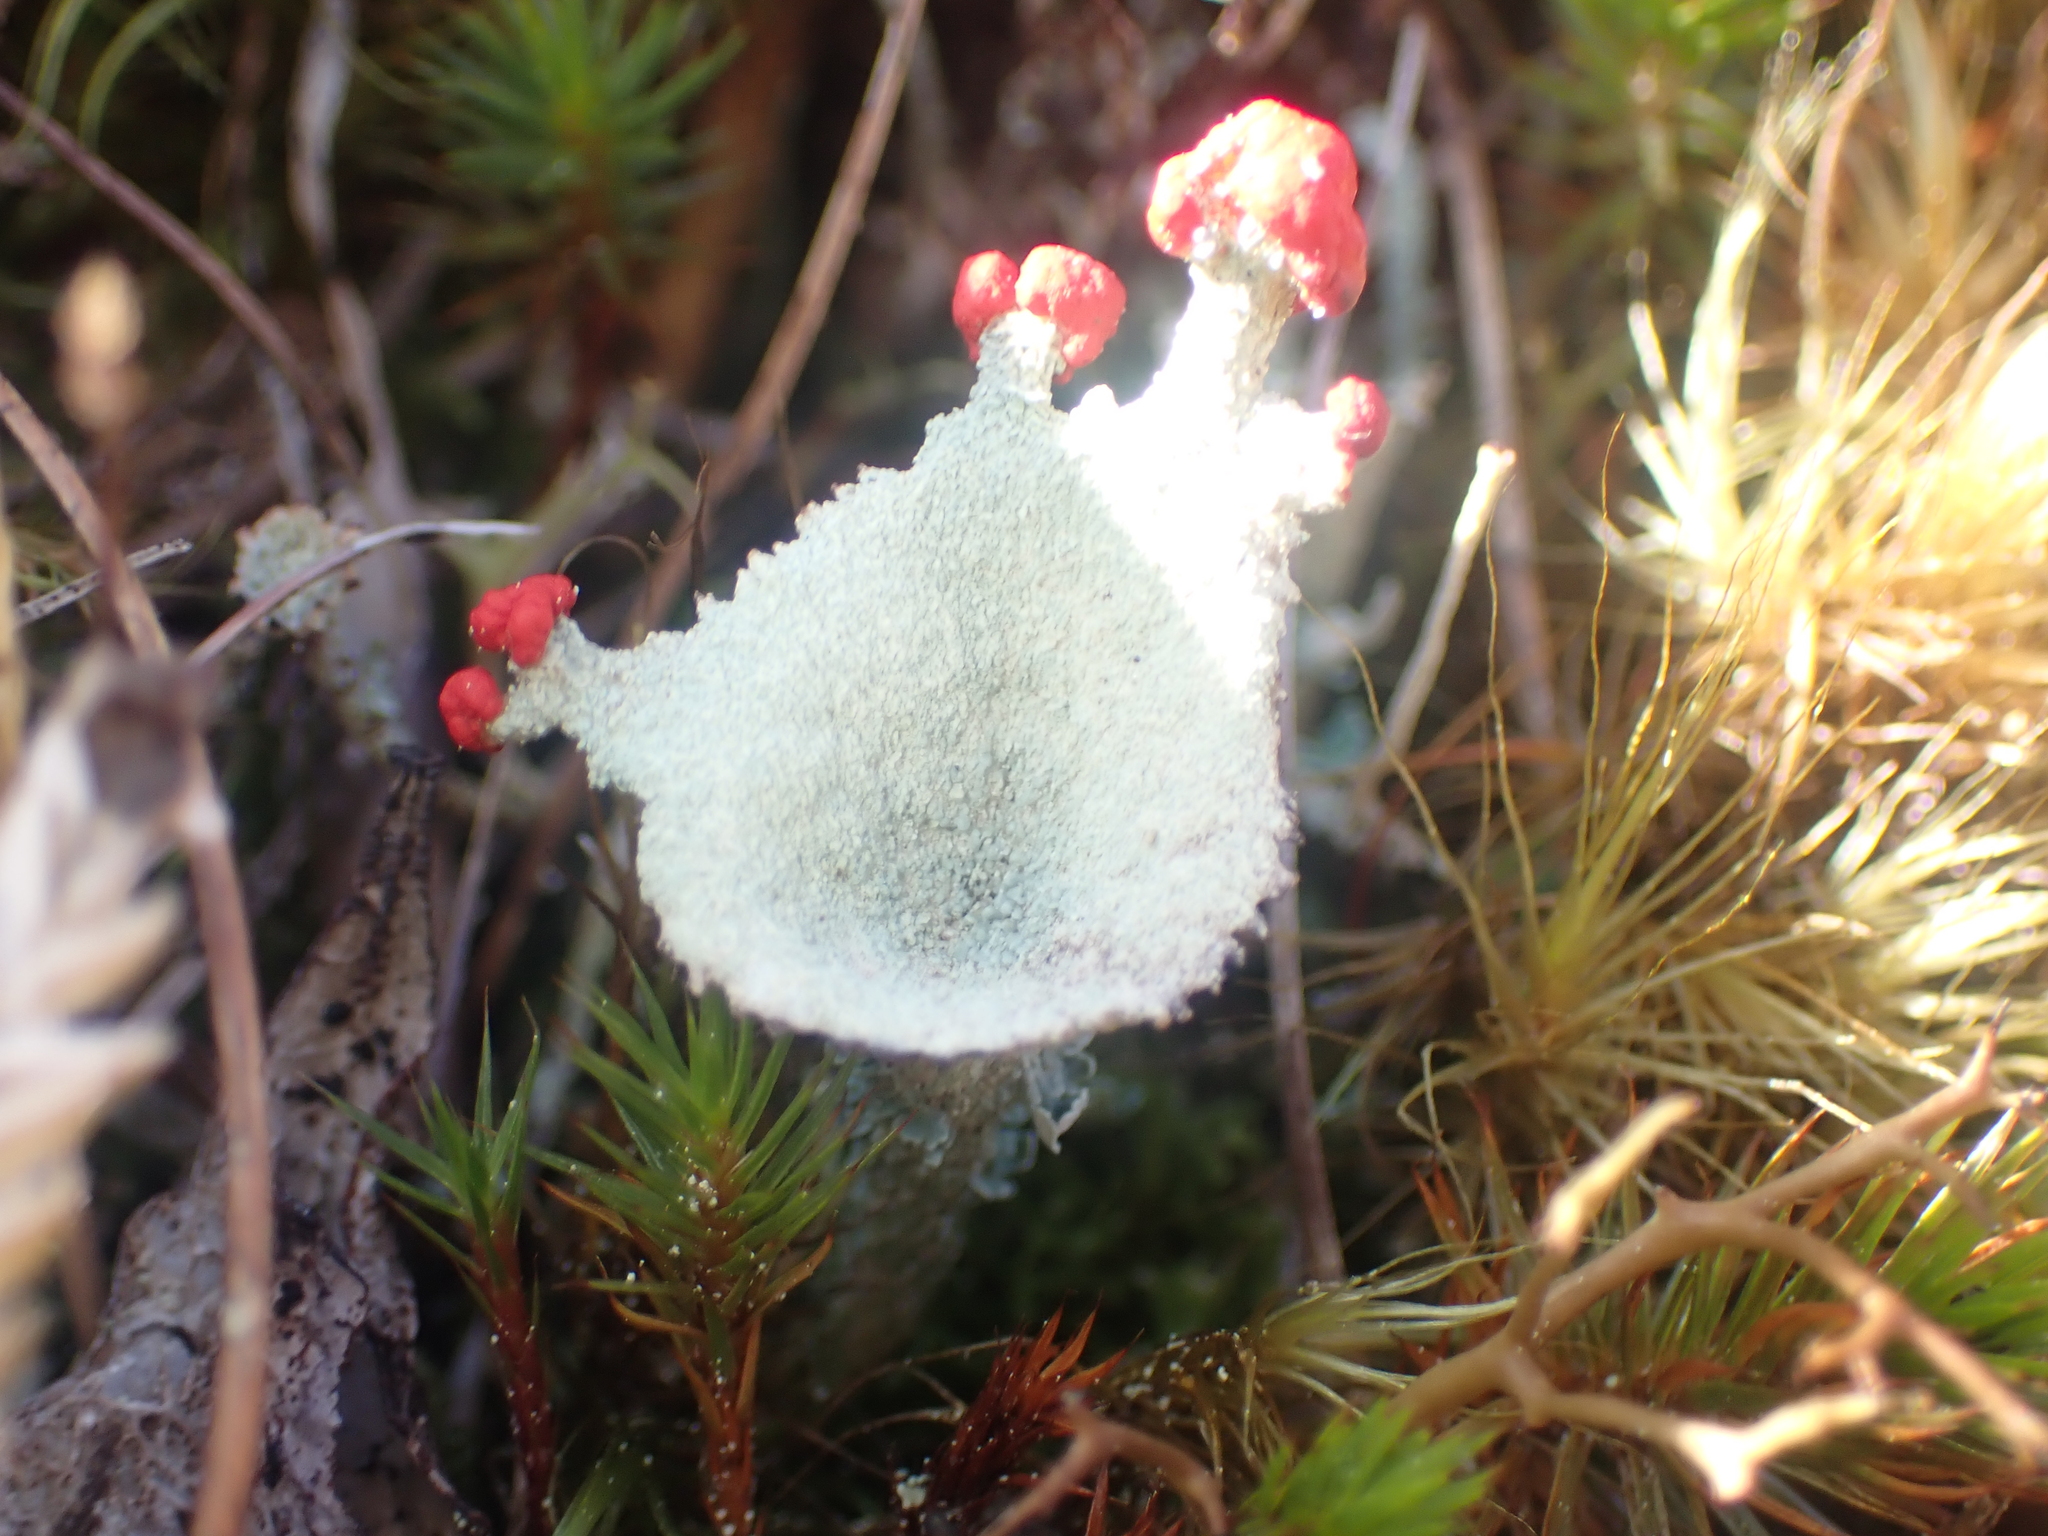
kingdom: Fungi
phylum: Ascomycota
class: Lecanoromycetes
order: Lecanorales
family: Cladoniaceae
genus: Cladonia
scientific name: Cladonia pleurota
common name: Red-fruited pixie cup
